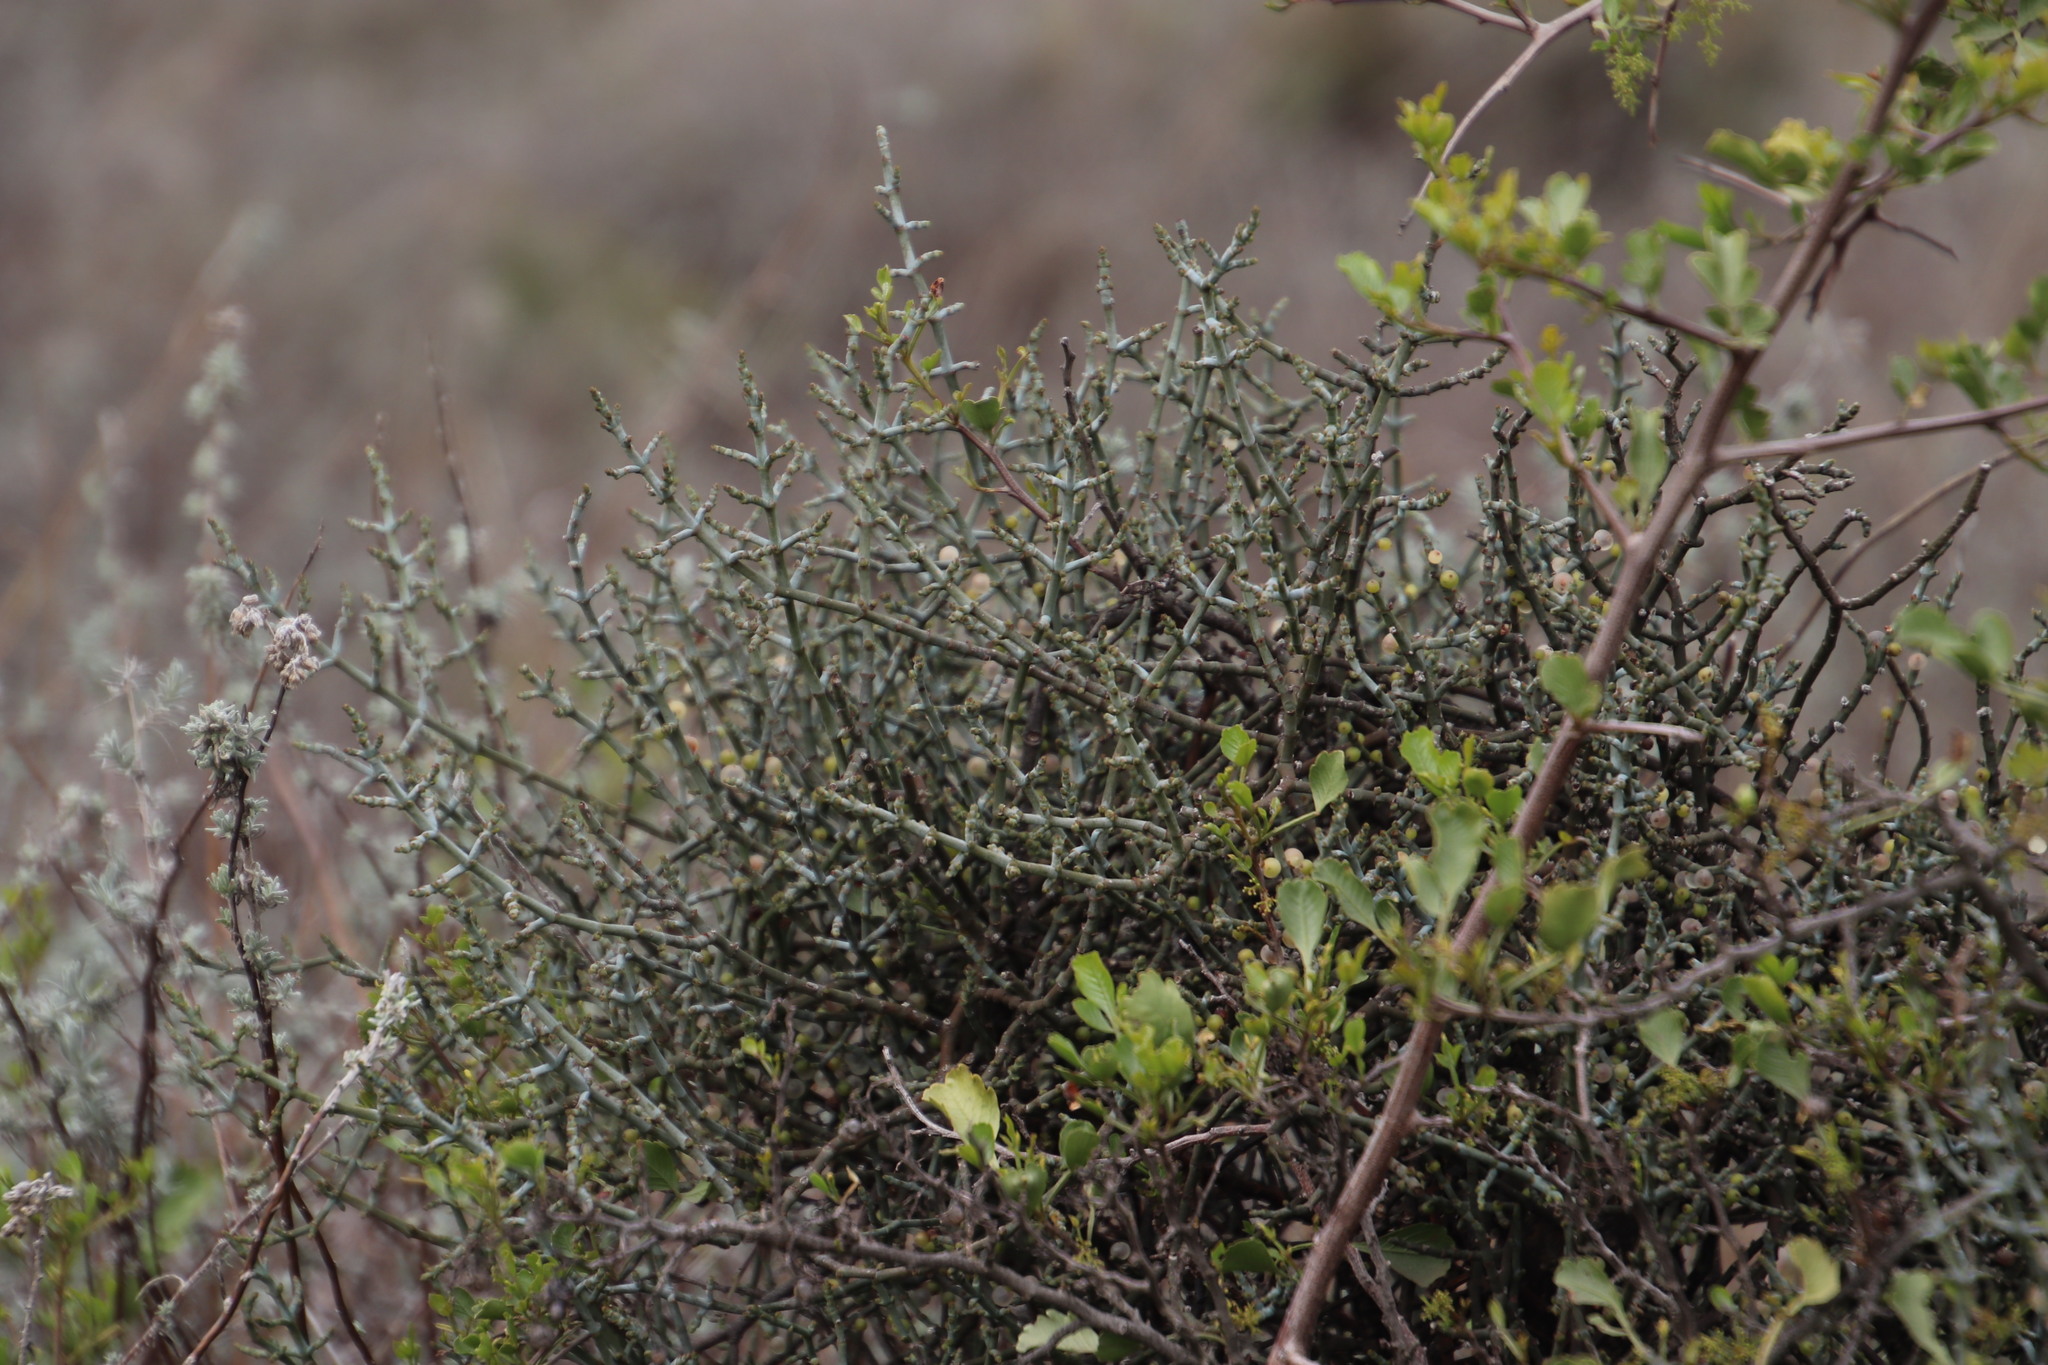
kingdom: Plantae
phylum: Tracheophyta
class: Magnoliopsida
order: Santalales
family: Viscaceae
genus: Viscum
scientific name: Viscum capense
